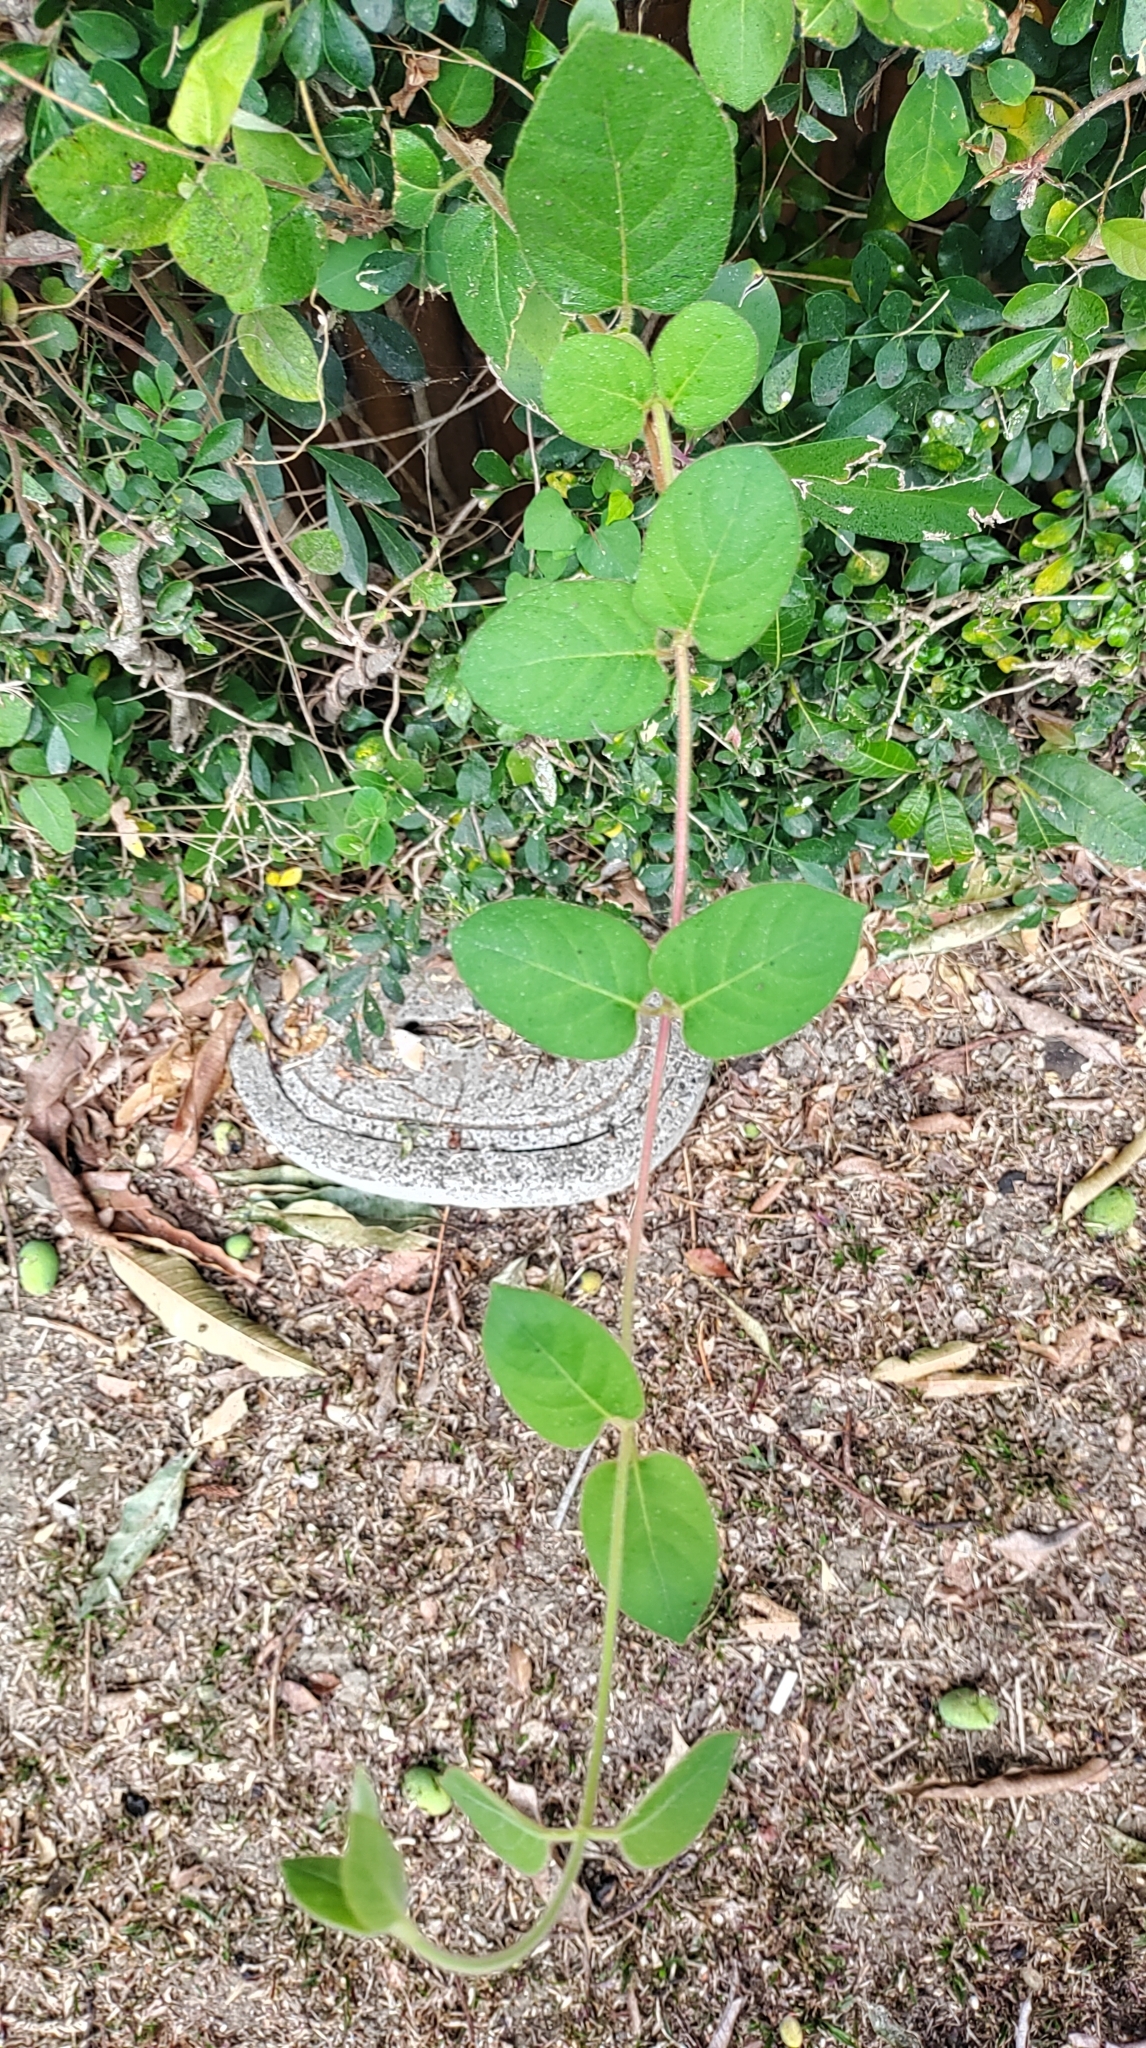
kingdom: Plantae
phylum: Tracheophyta
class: Magnoliopsida
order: Dipsacales
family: Caprifoliaceae
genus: Lonicera
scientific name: Lonicera japonica
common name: Japanese honeysuckle
